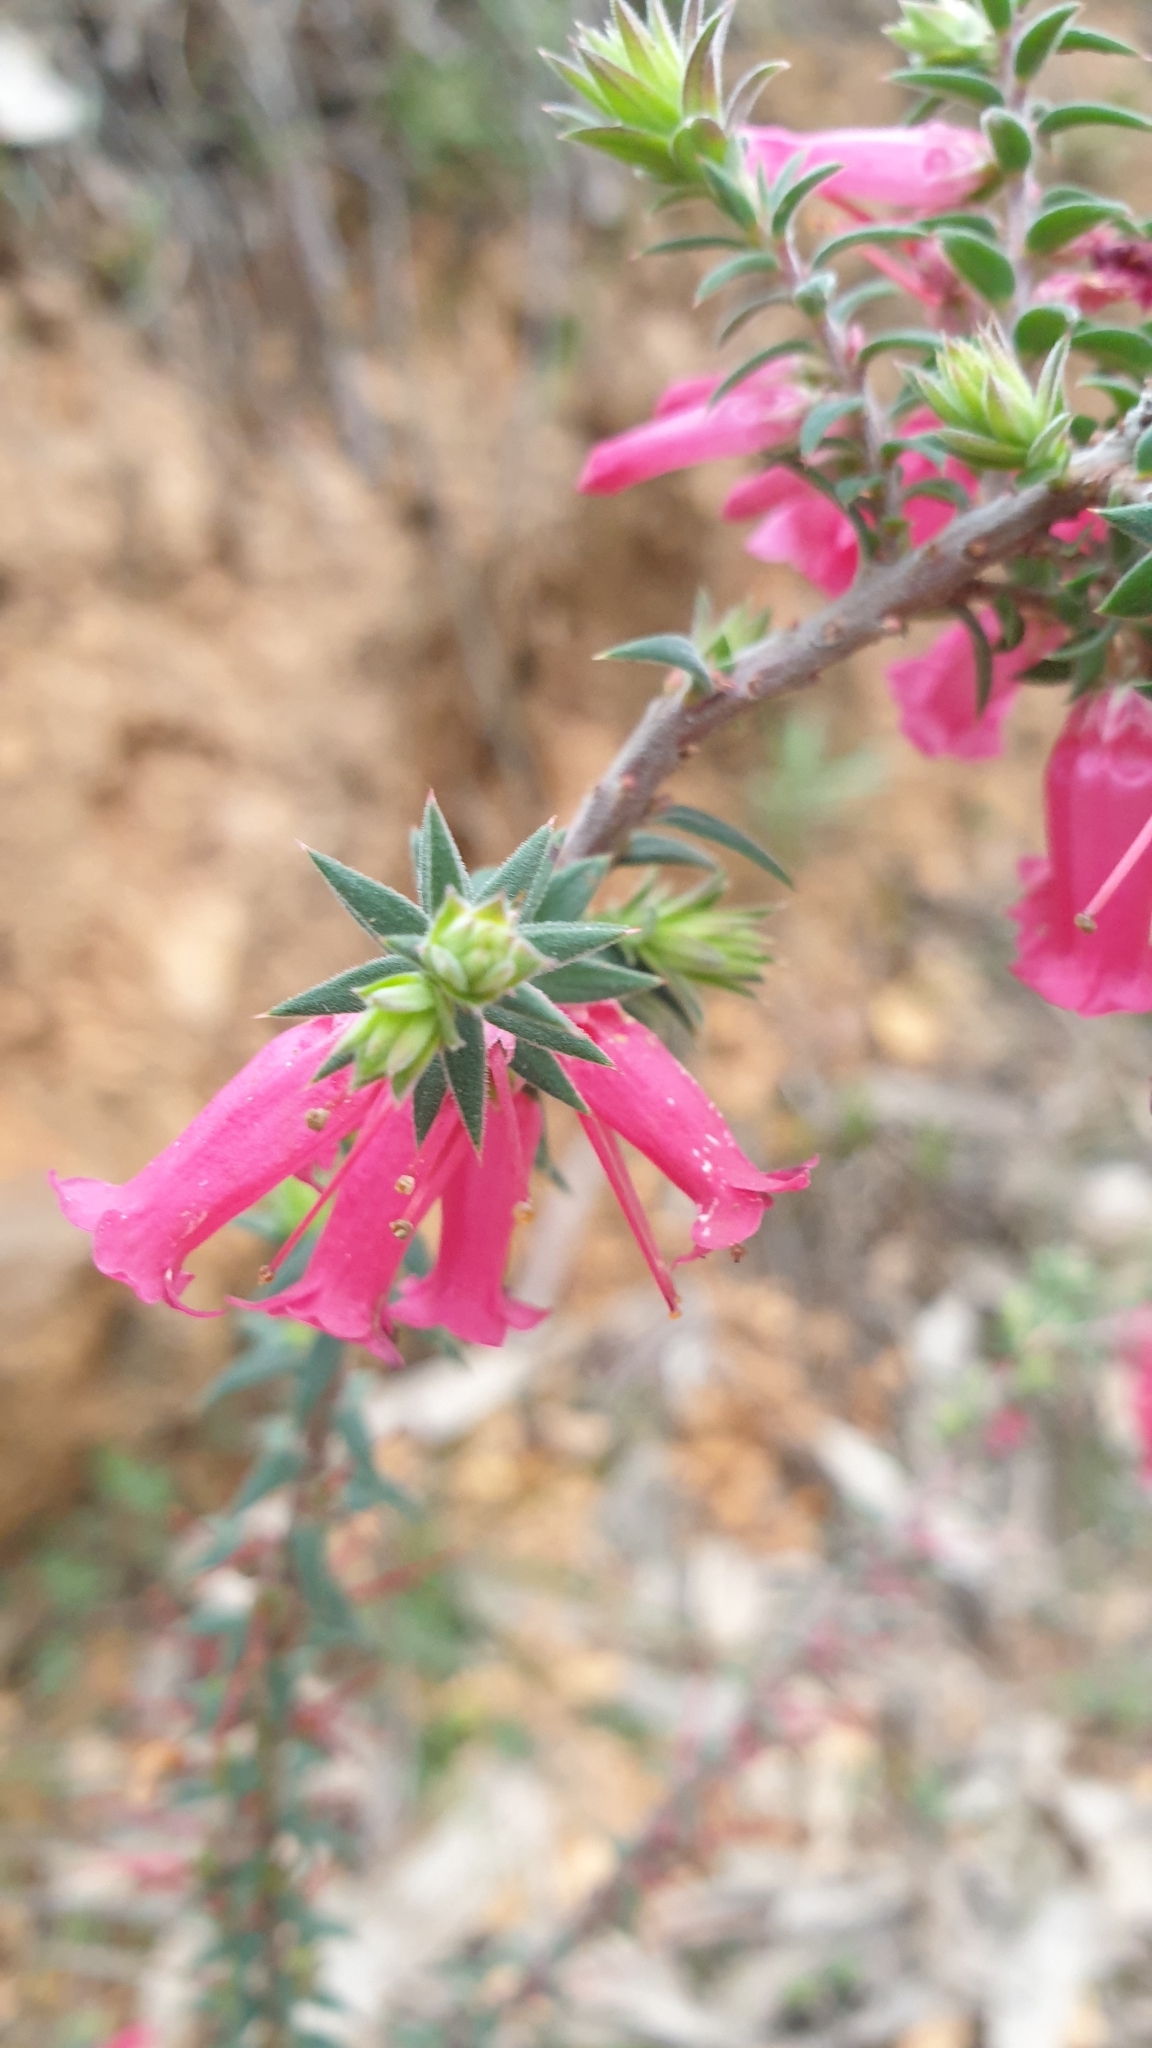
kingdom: Plantae
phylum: Tracheophyta
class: Magnoliopsida
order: Ericales
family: Ericaceae
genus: Epacris
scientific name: Epacris impressa
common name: Common-heath
